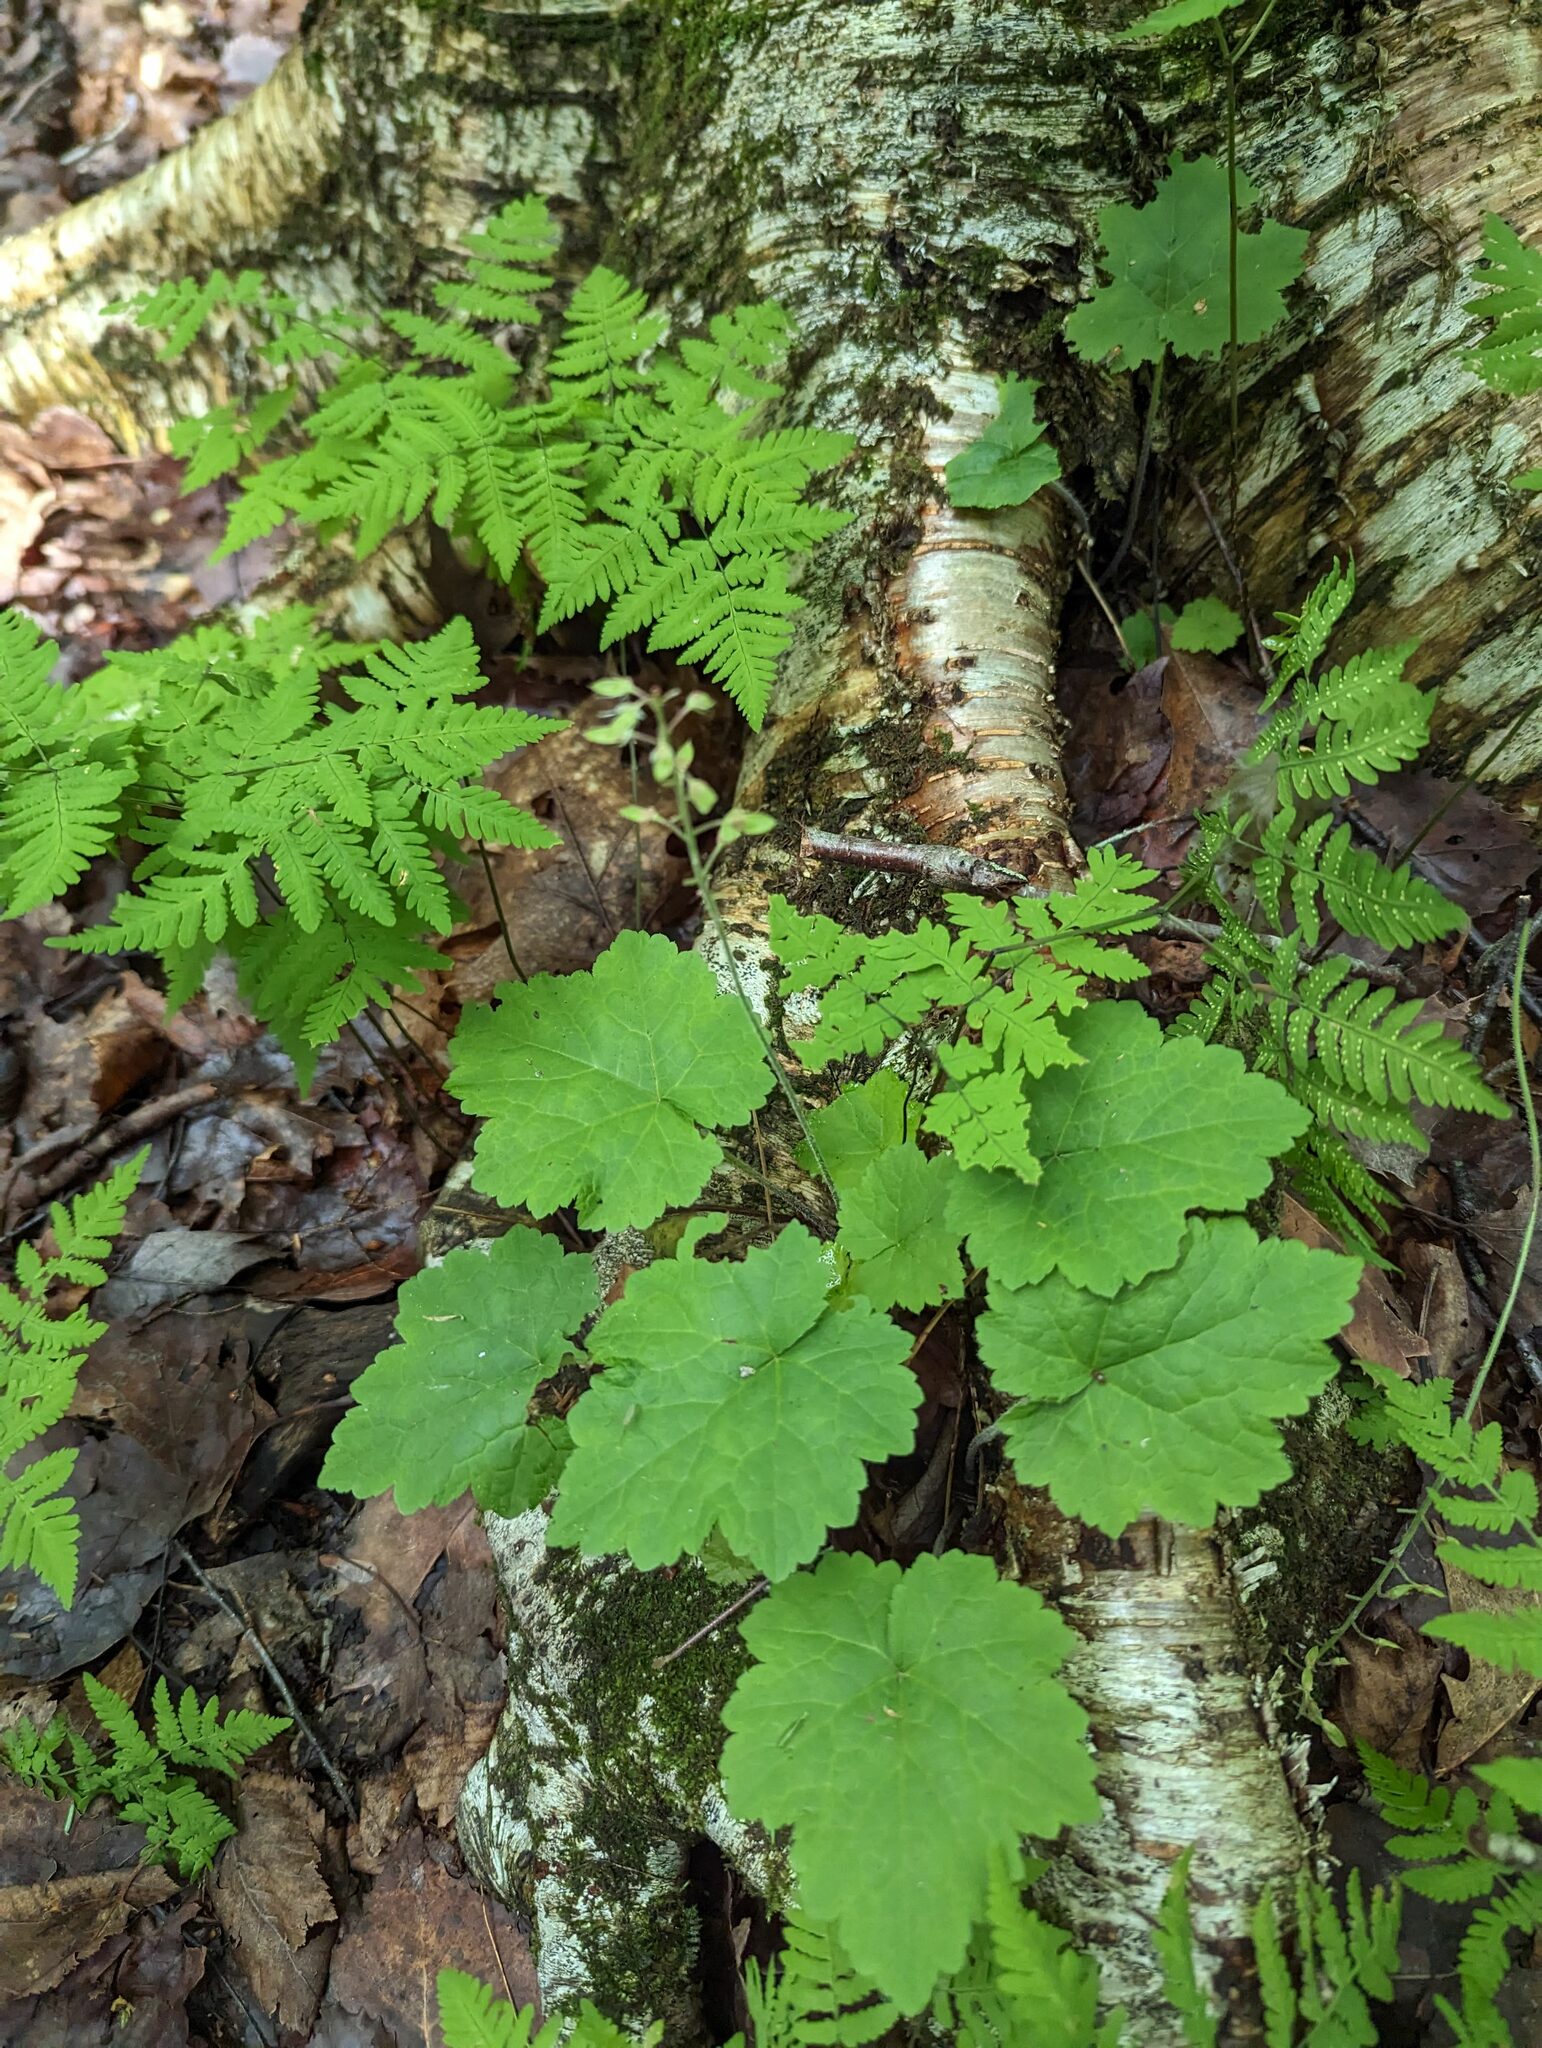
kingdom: Plantae
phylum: Tracheophyta
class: Magnoliopsida
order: Saxifragales
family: Saxifragaceae
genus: Tiarella
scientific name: Tiarella stolonifera
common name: Stoloniferous foamflower
